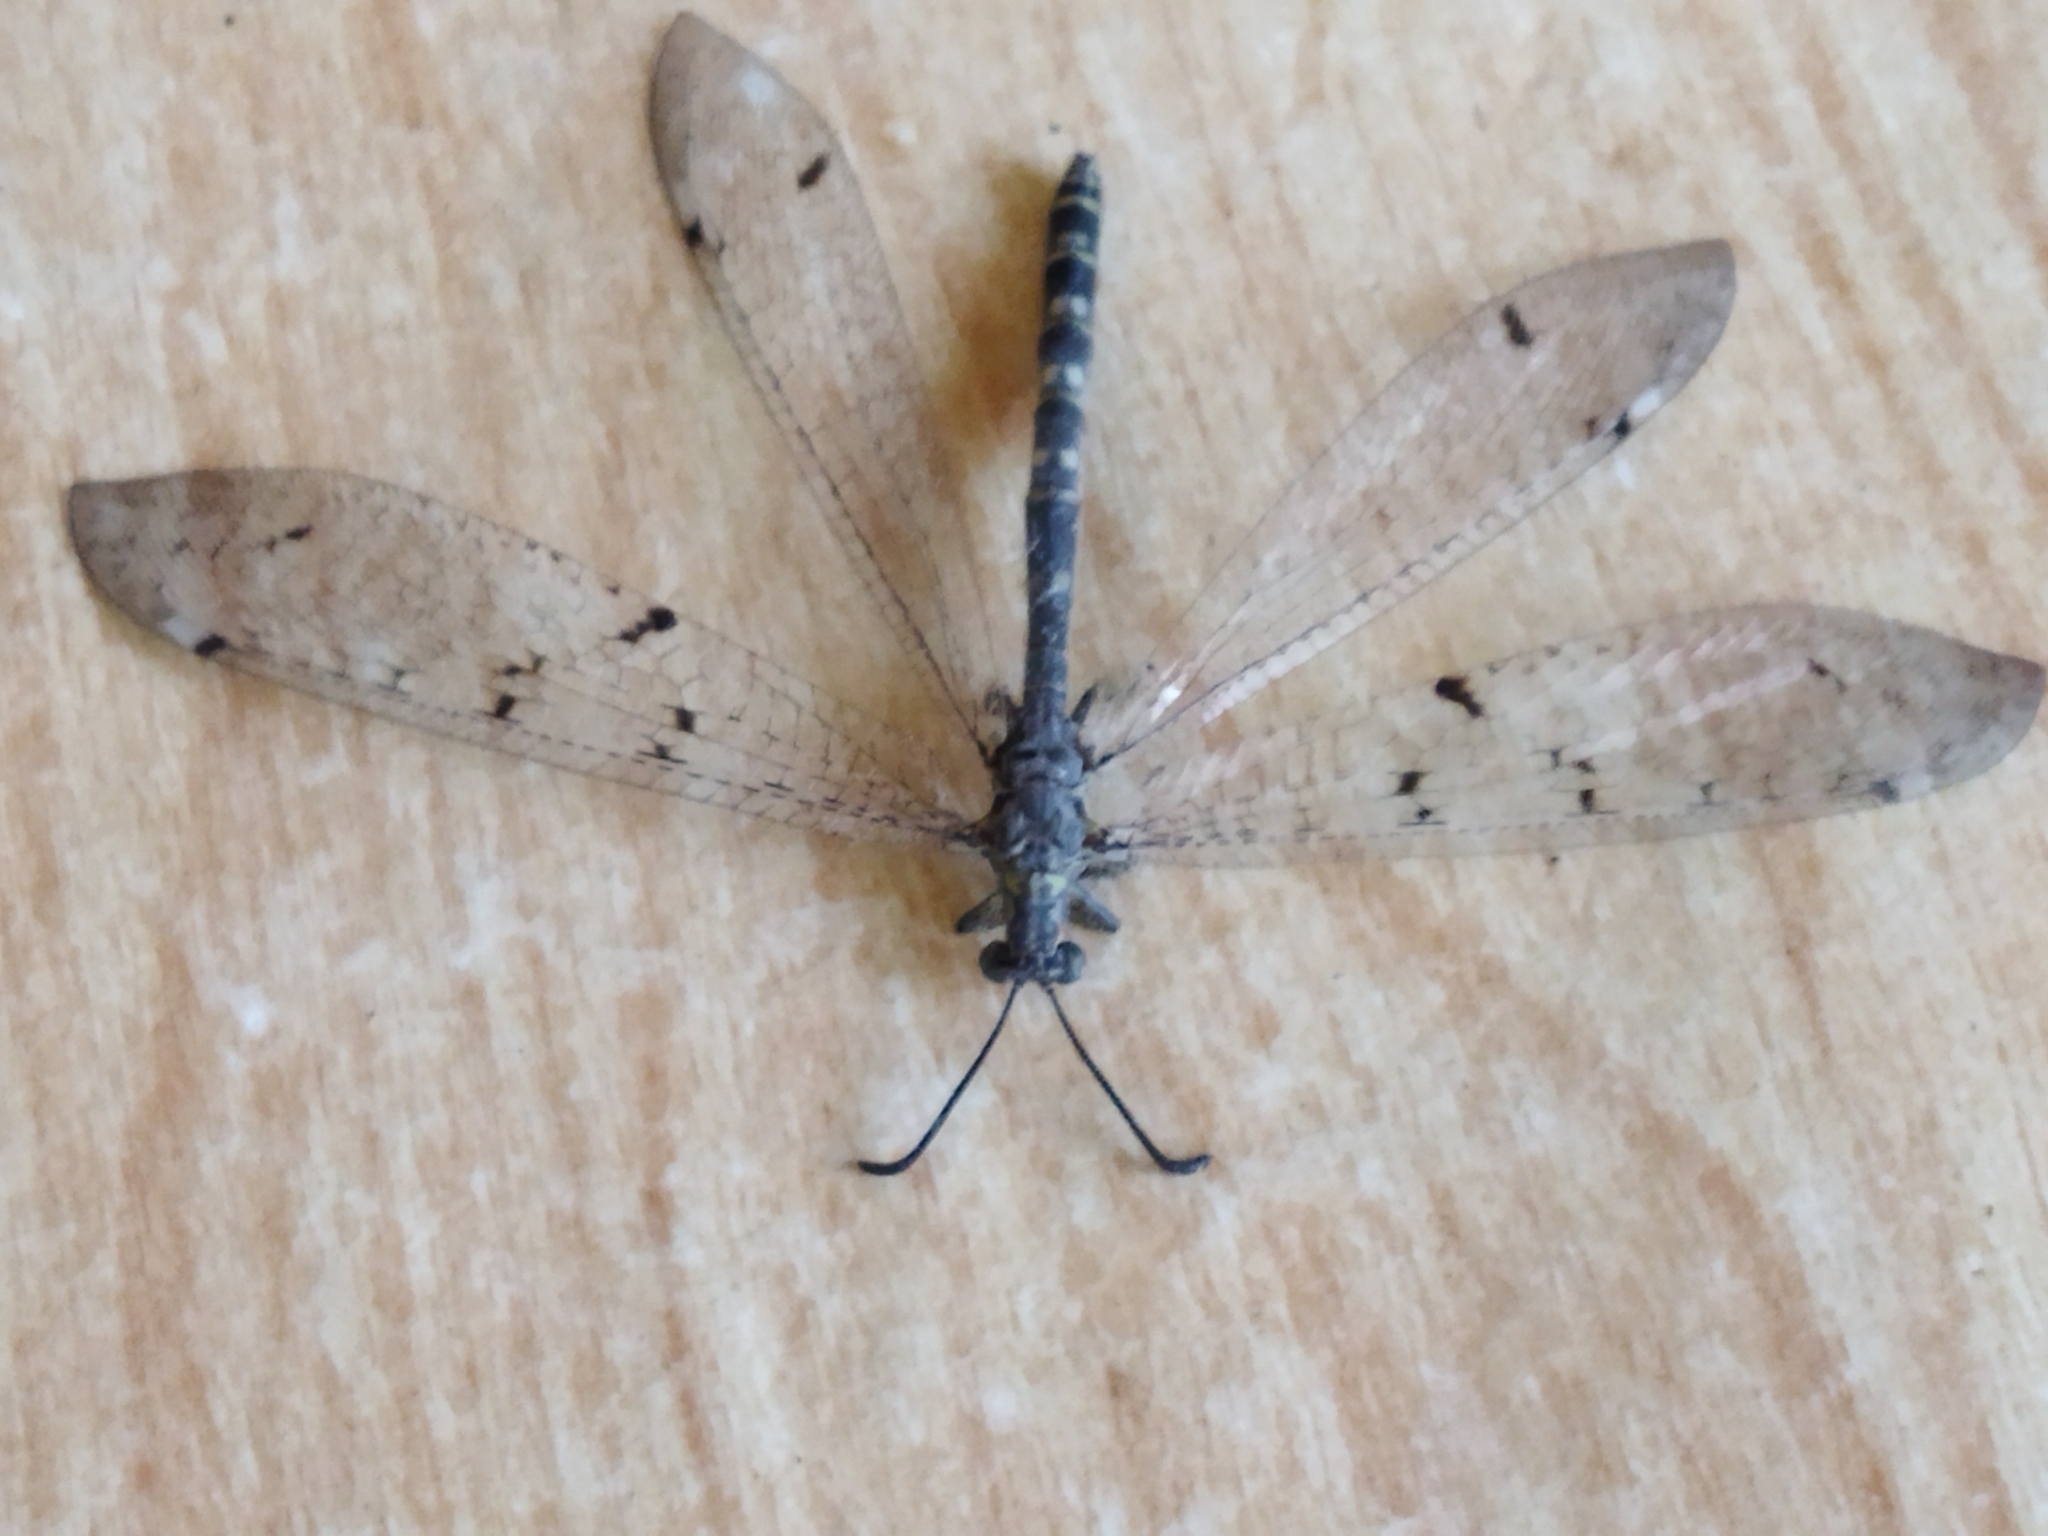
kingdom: Animalia
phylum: Arthropoda
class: Insecta
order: Neuroptera
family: Myrmeleontidae
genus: Distoleon
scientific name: Distoleon tetragrammicus
